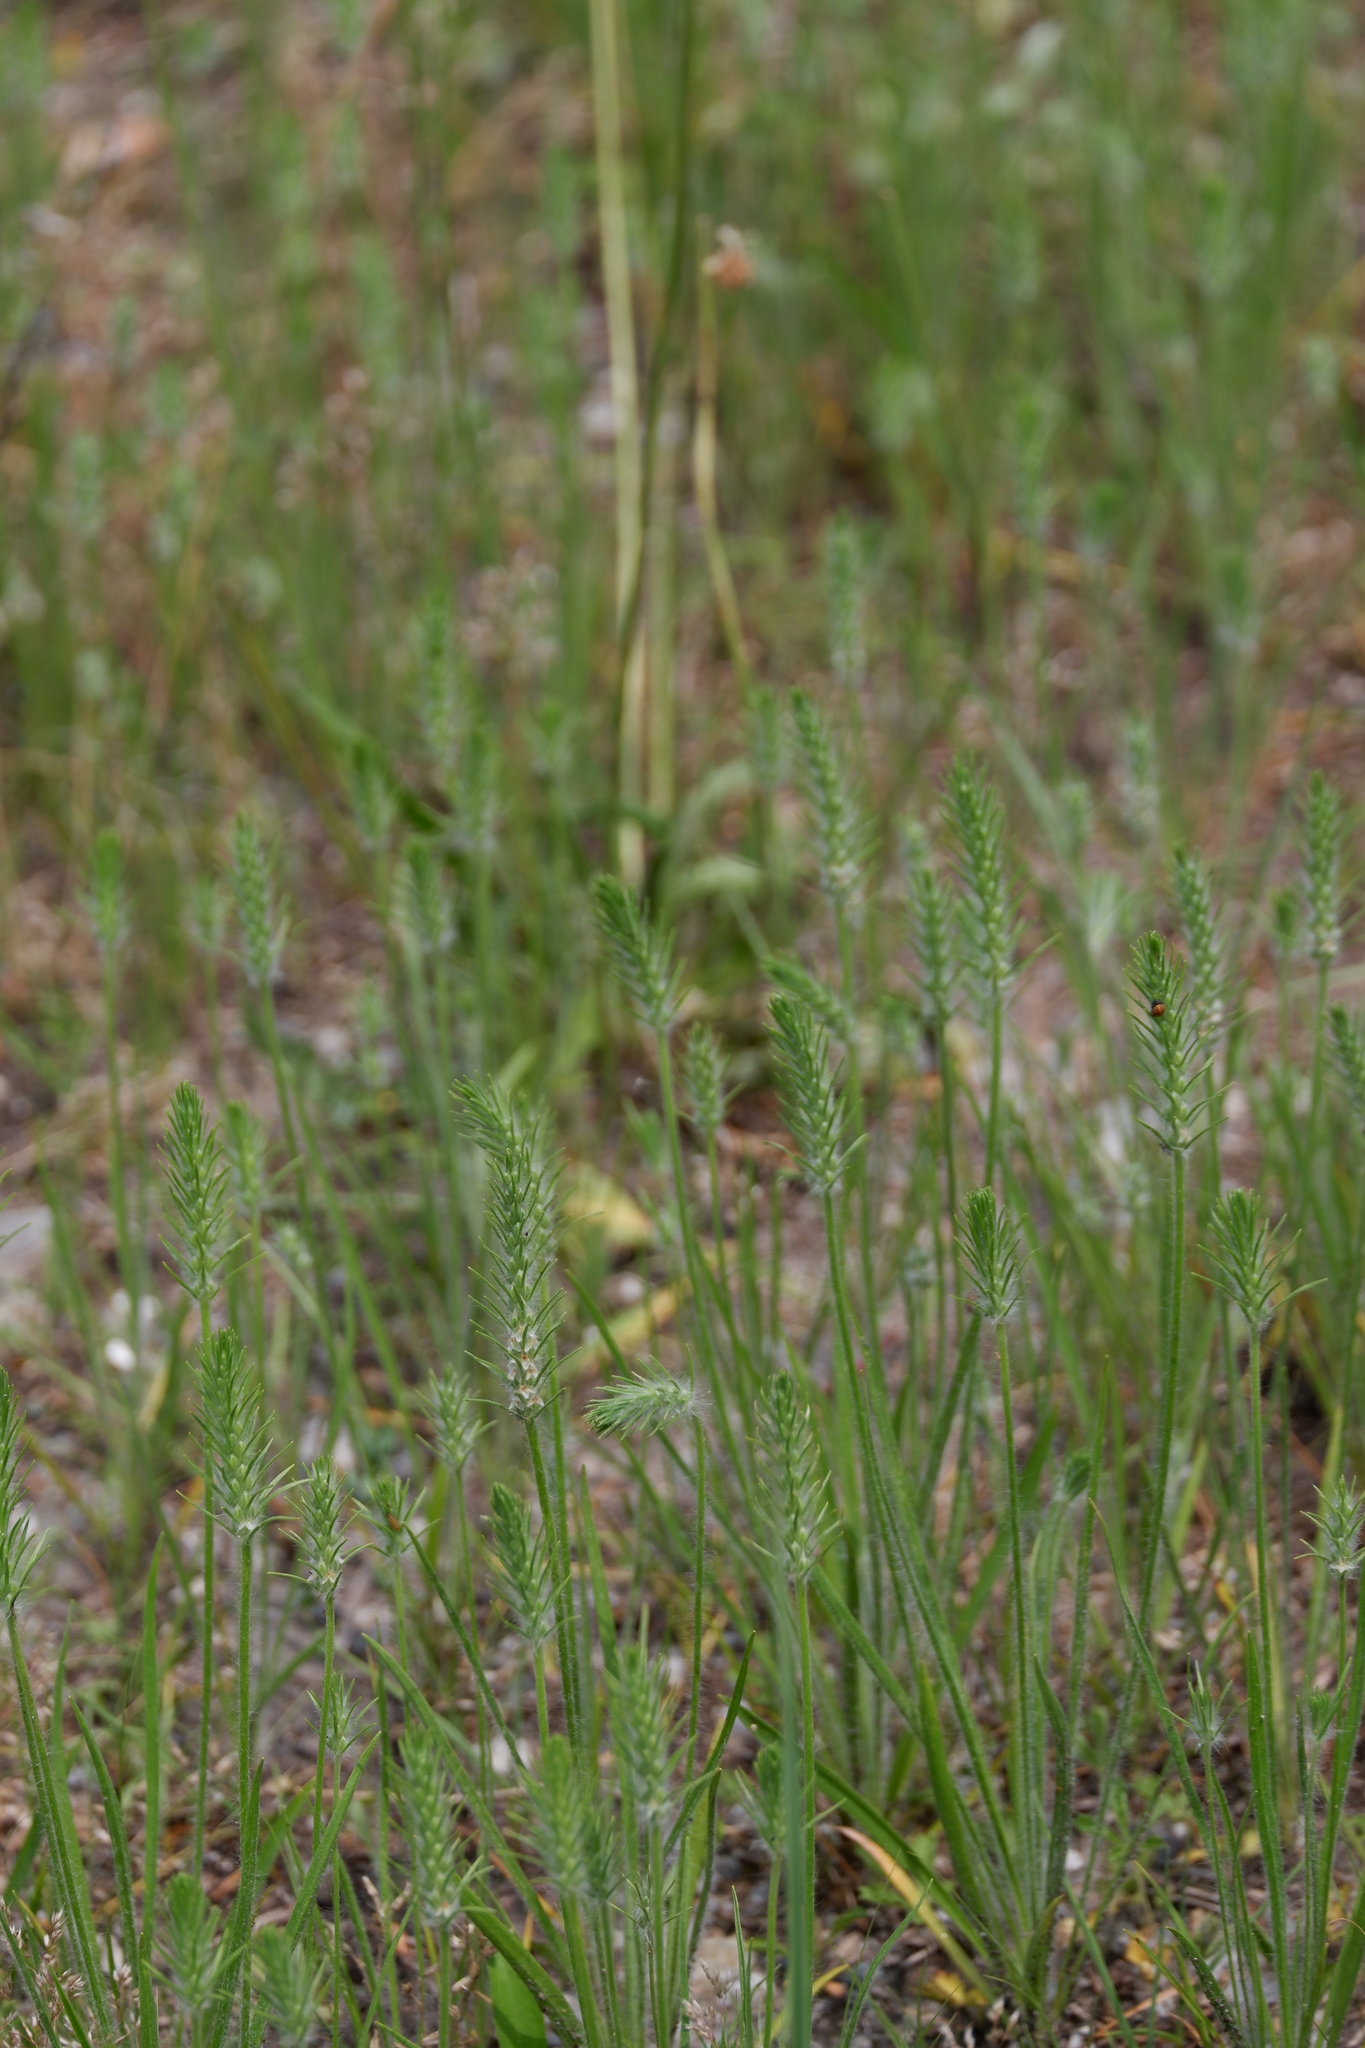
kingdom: Plantae
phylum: Tracheophyta
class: Magnoliopsida
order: Lamiales
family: Plantaginaceae
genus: Plantago
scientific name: Plantago aristata
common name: Bracted plantain
